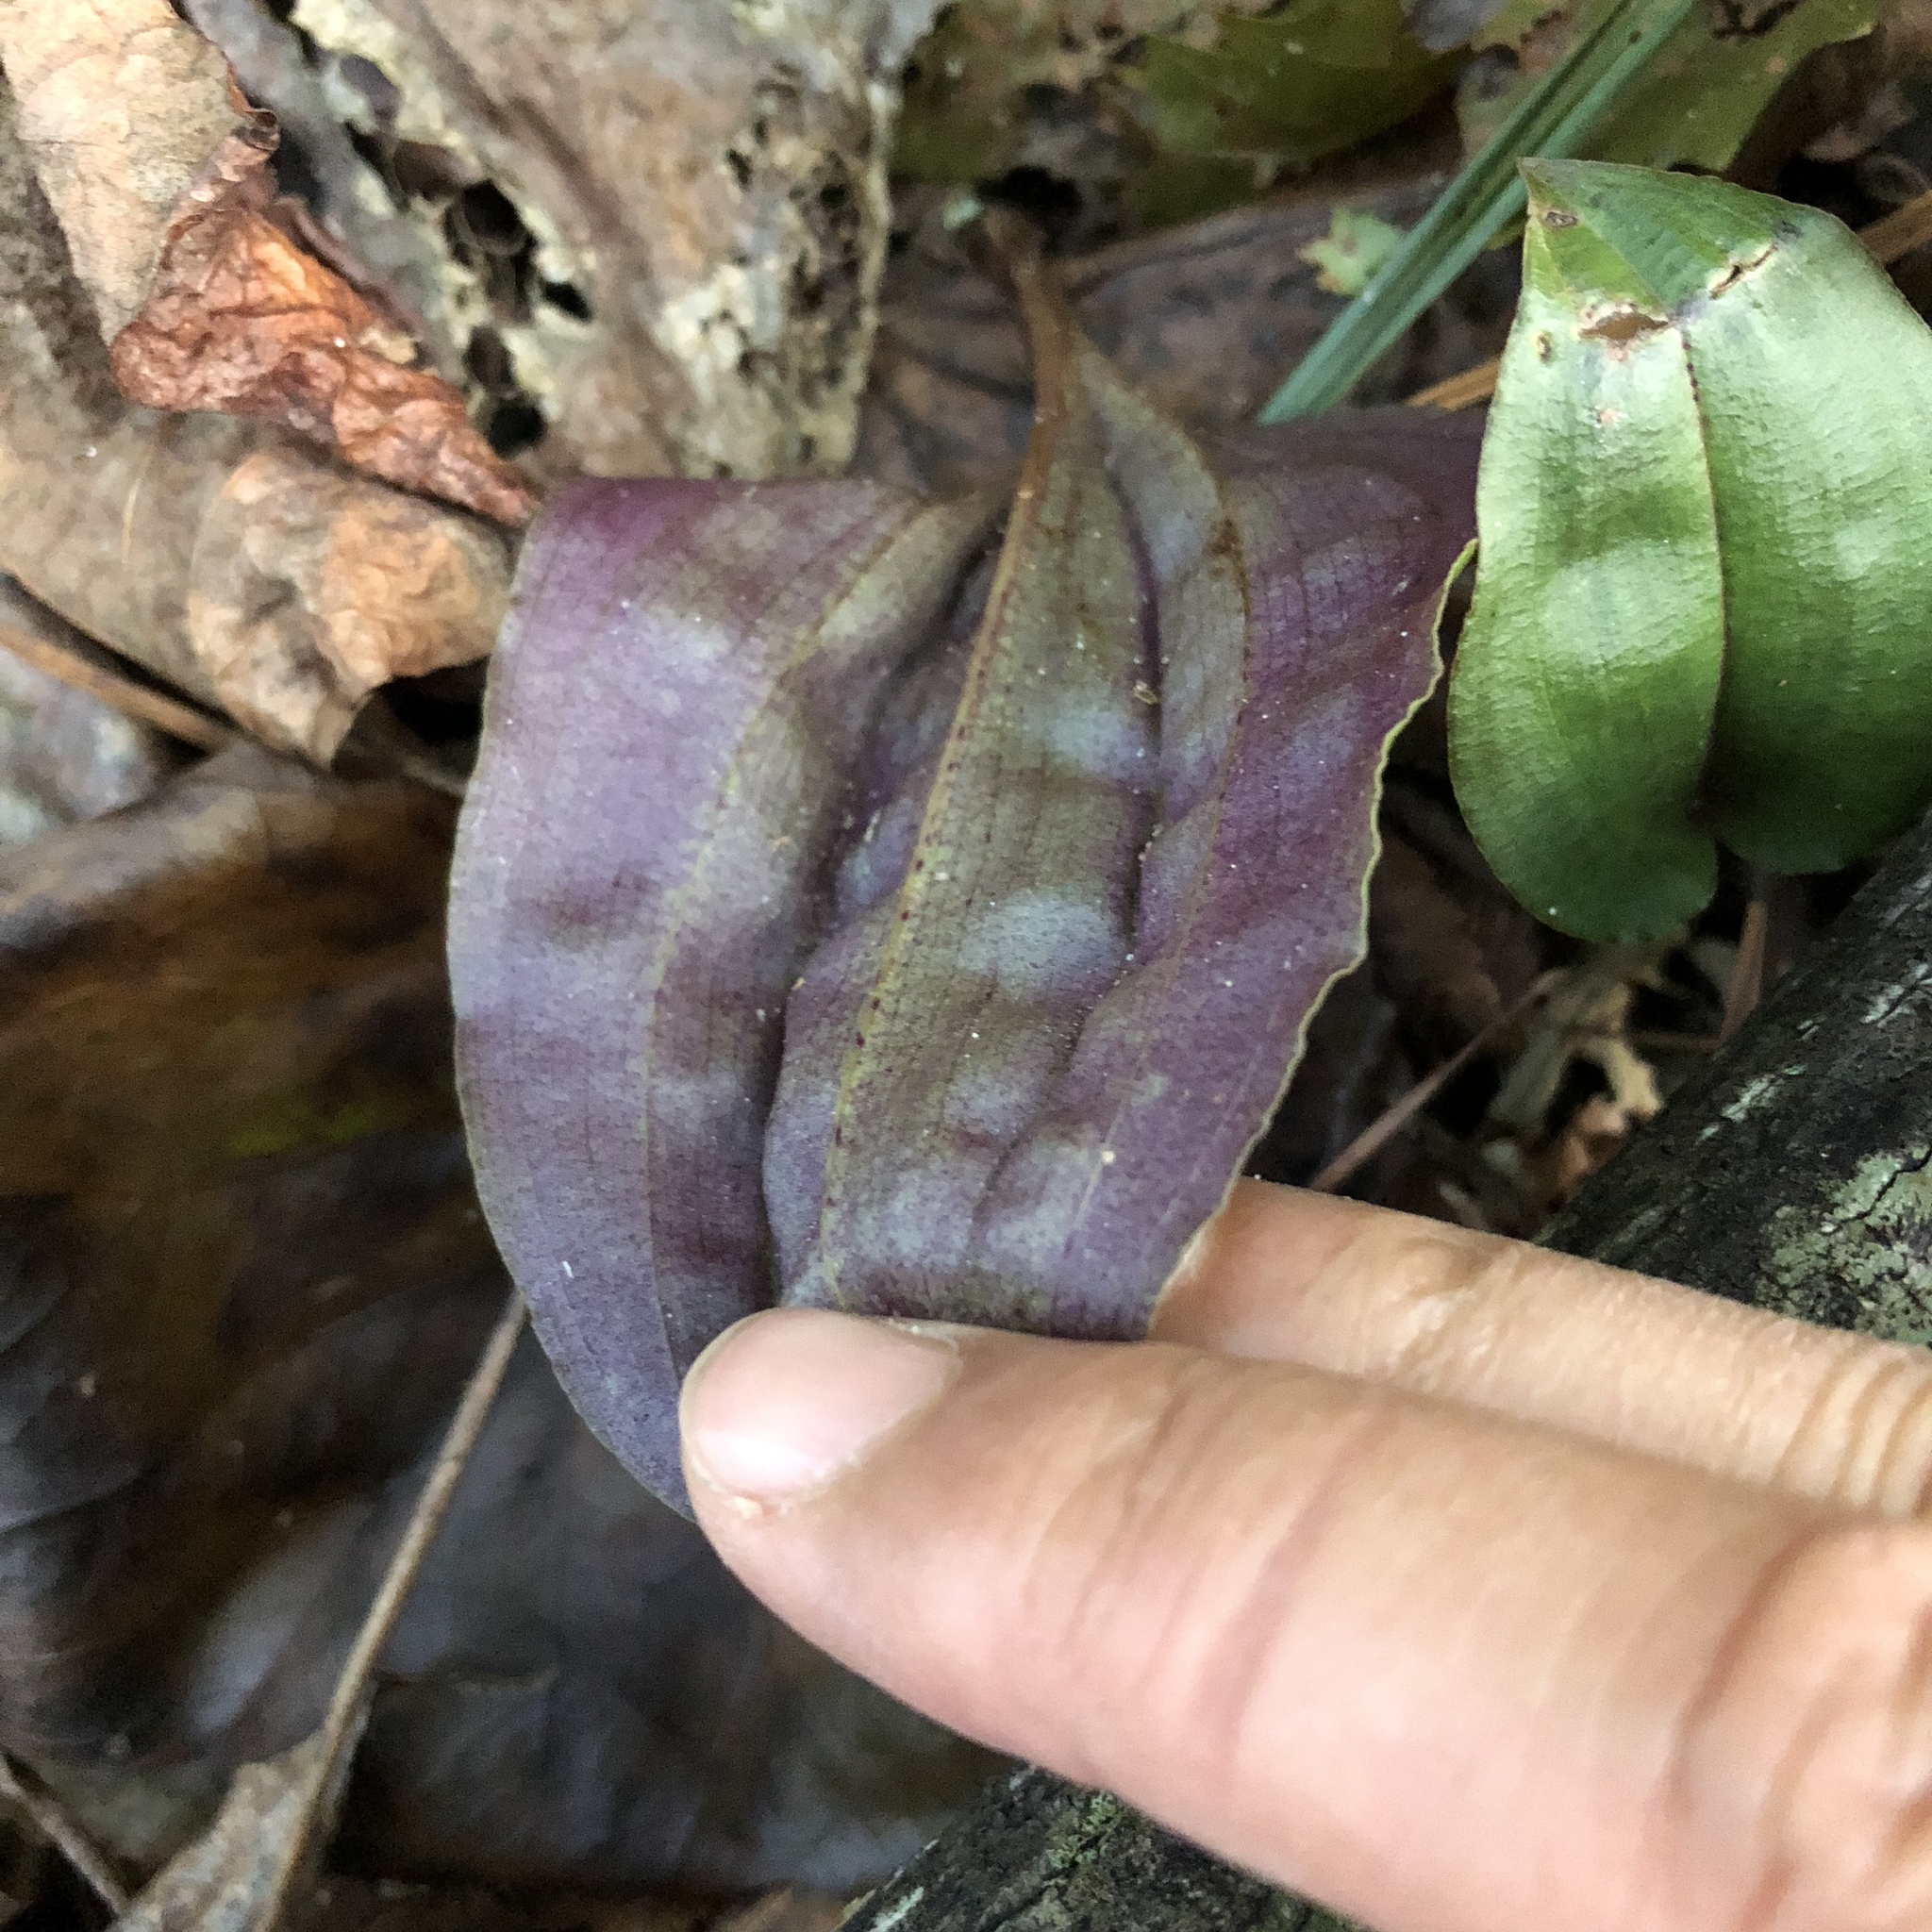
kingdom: Plantae
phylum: Tracheophyta
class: Liliopsida
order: Asparagales
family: Orchidaceae
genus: Tipularia
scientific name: Tipularia discolor
